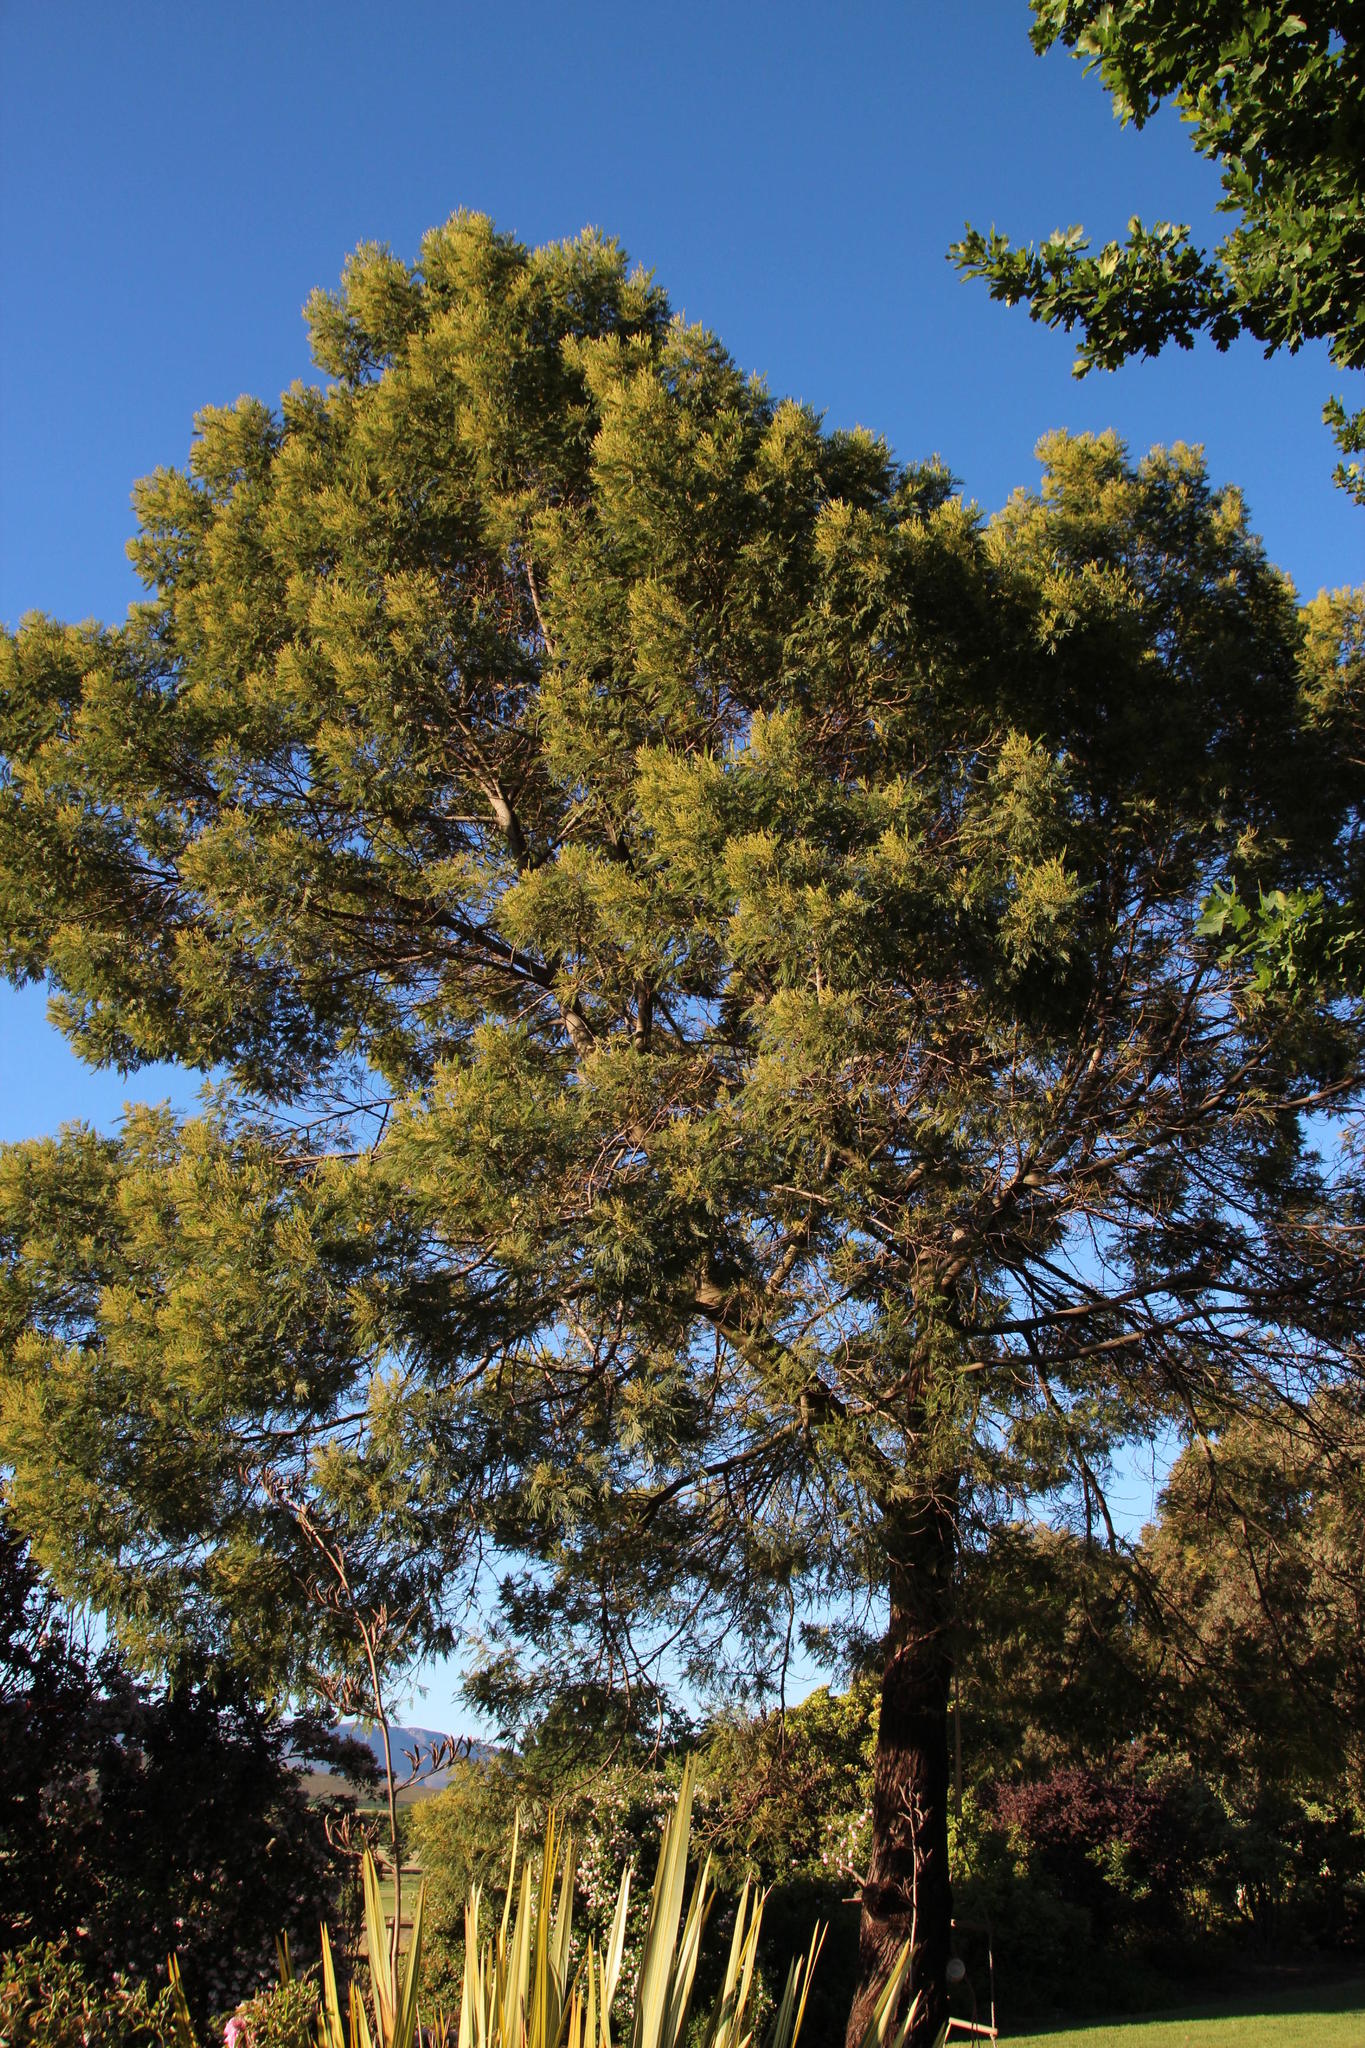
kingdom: Plantae
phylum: Tracheophyta
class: Magnoliopsida
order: Fabales
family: Fabaceae
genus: Acacia
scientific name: Acacia mearnsii
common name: Black wattle
